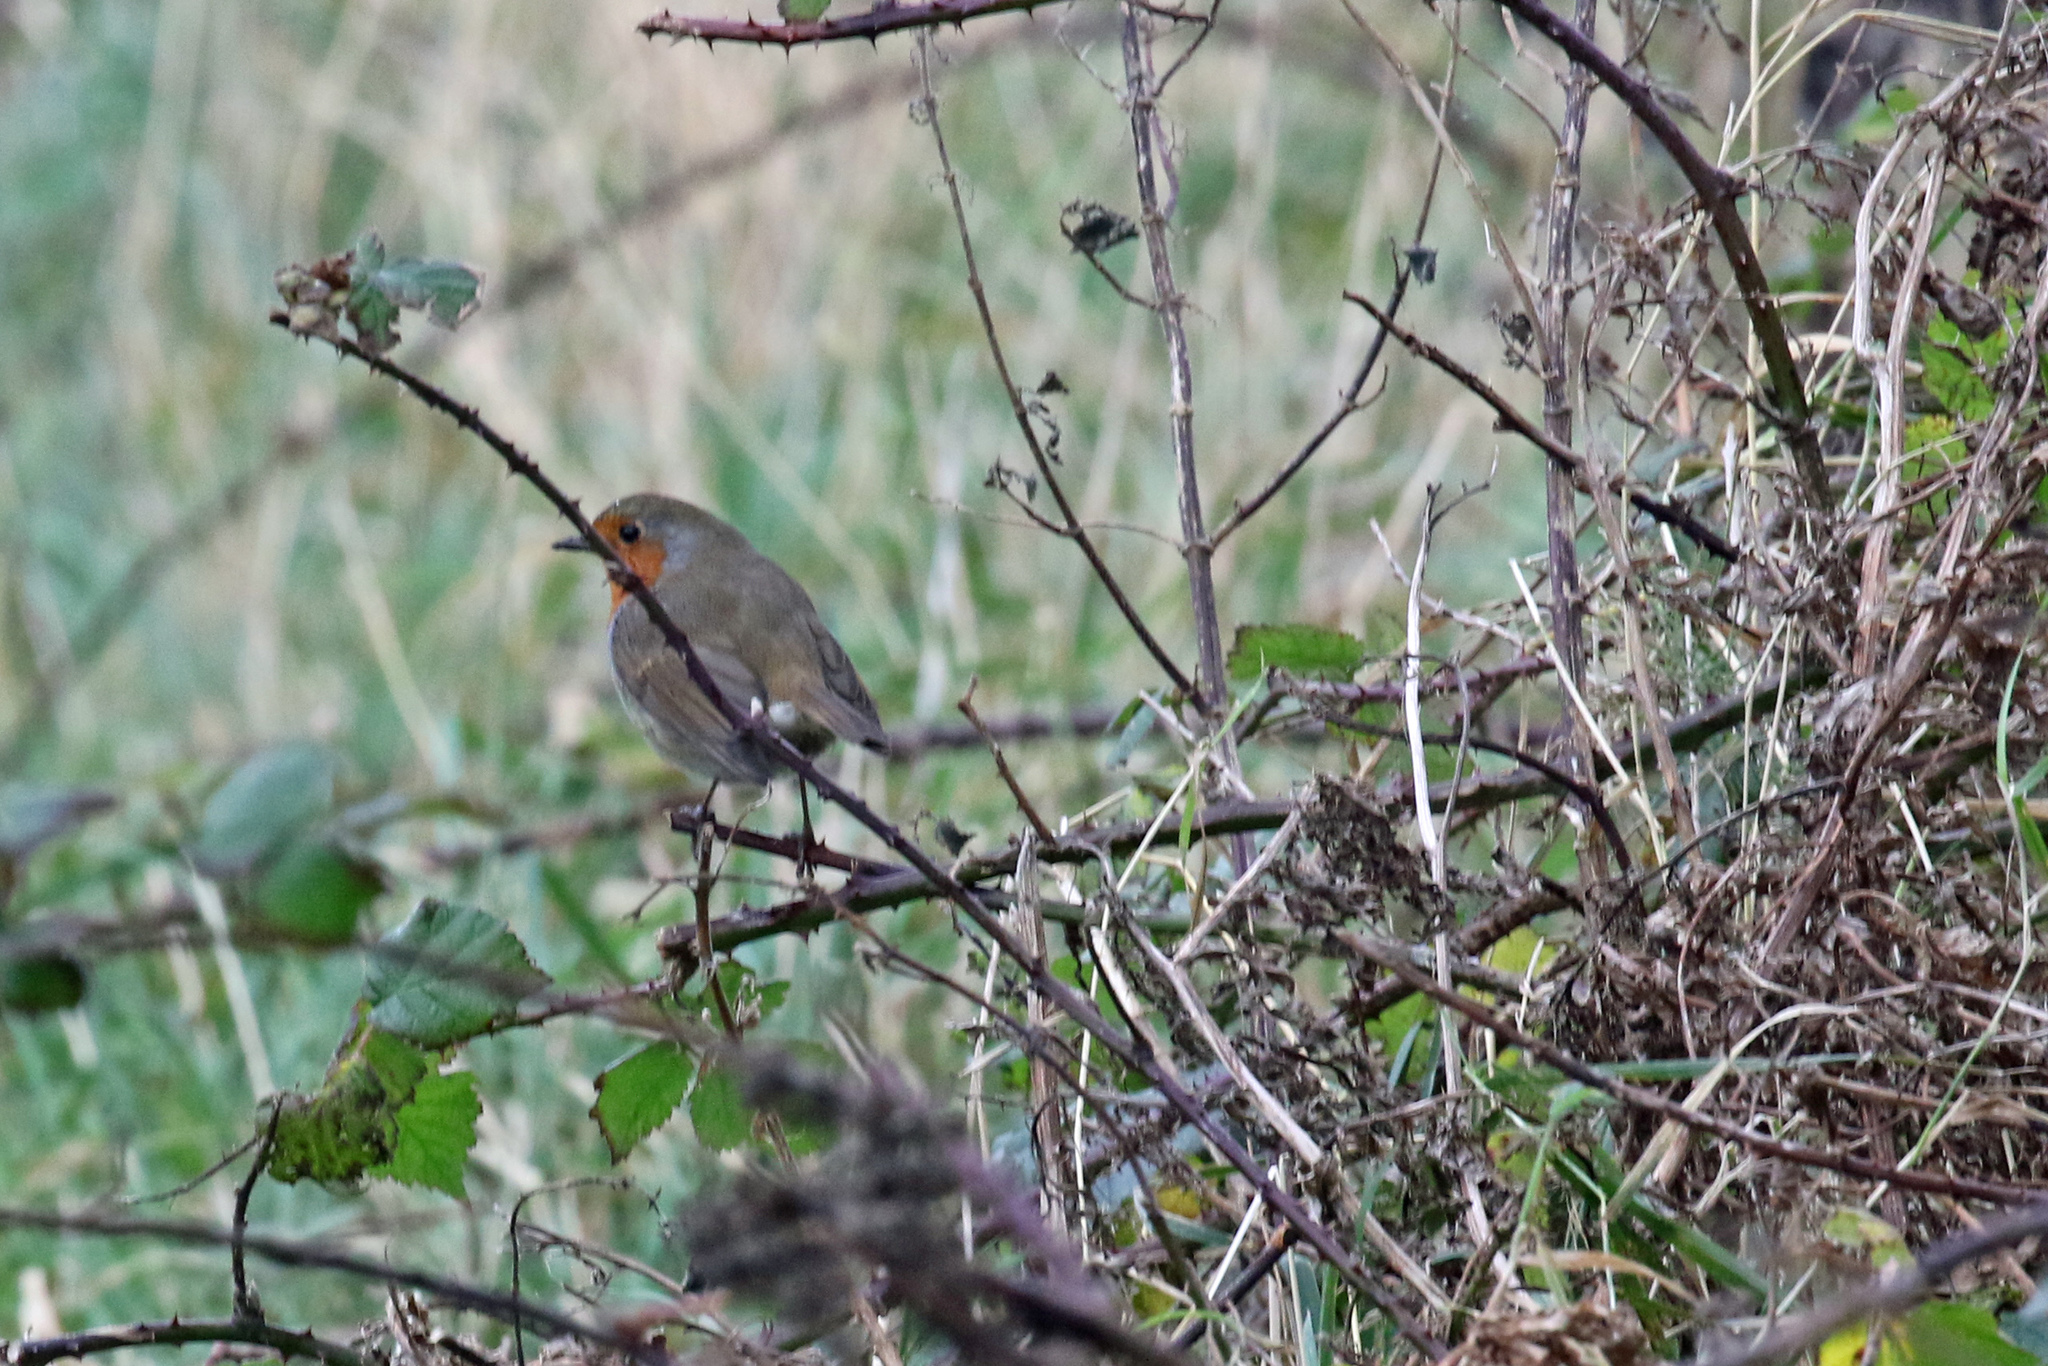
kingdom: Animalia
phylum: Chordata
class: Aves
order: Passeriformes
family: Muscicapidae
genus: Erithacus
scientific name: Erithacus rubecula
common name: European robin
